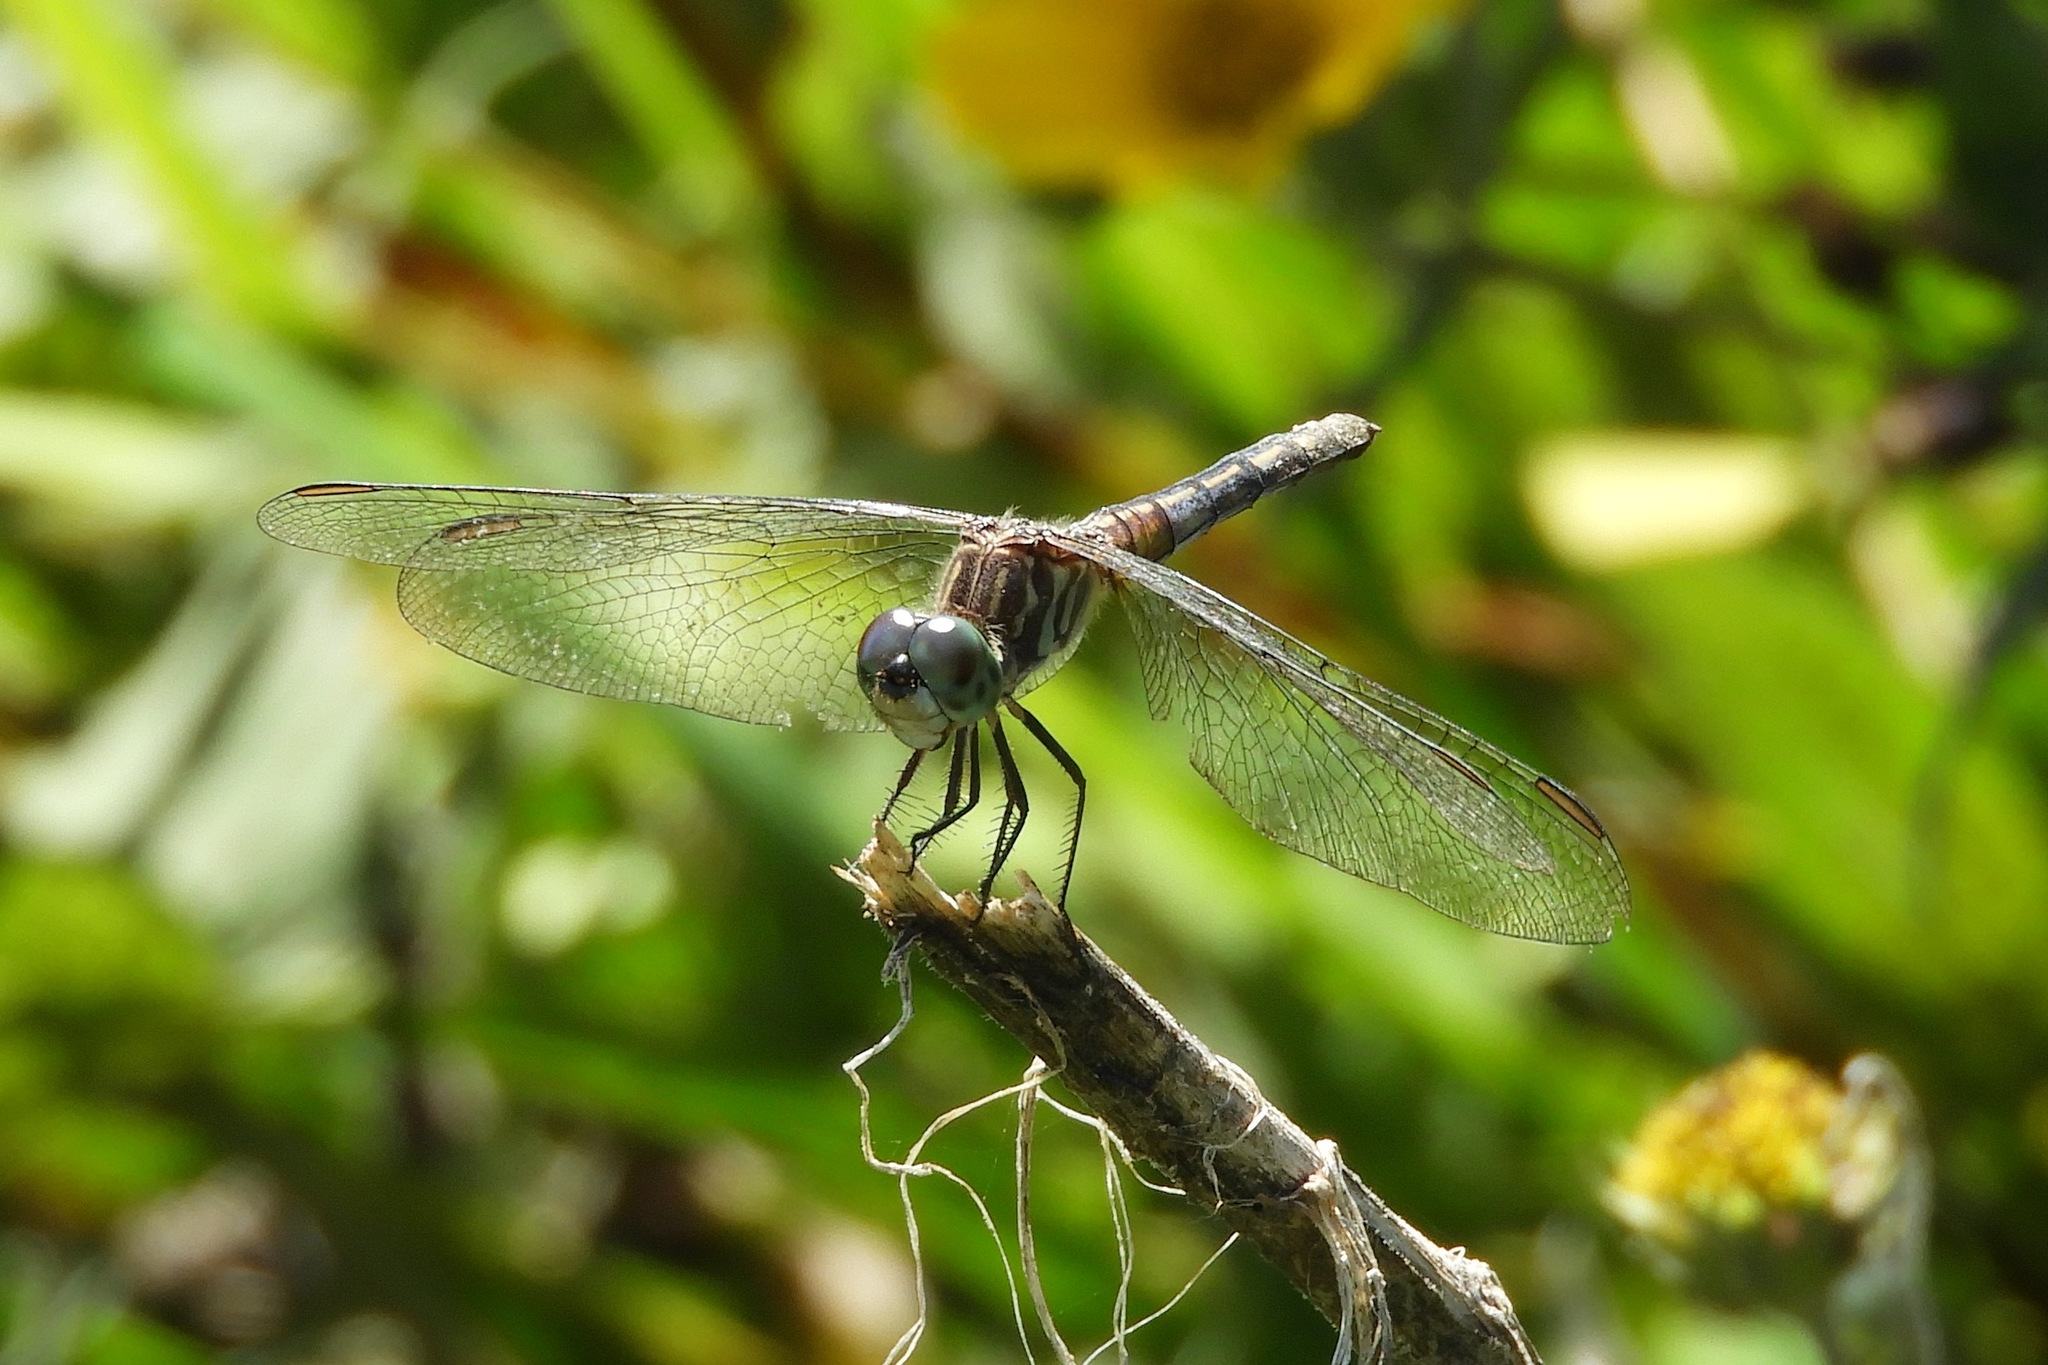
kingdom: Animalia
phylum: Arthropoda
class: Insecta
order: Odonata
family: Libellulidae
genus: Pachydiplax
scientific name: Pachydiplax longipennis
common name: Blue dasher
